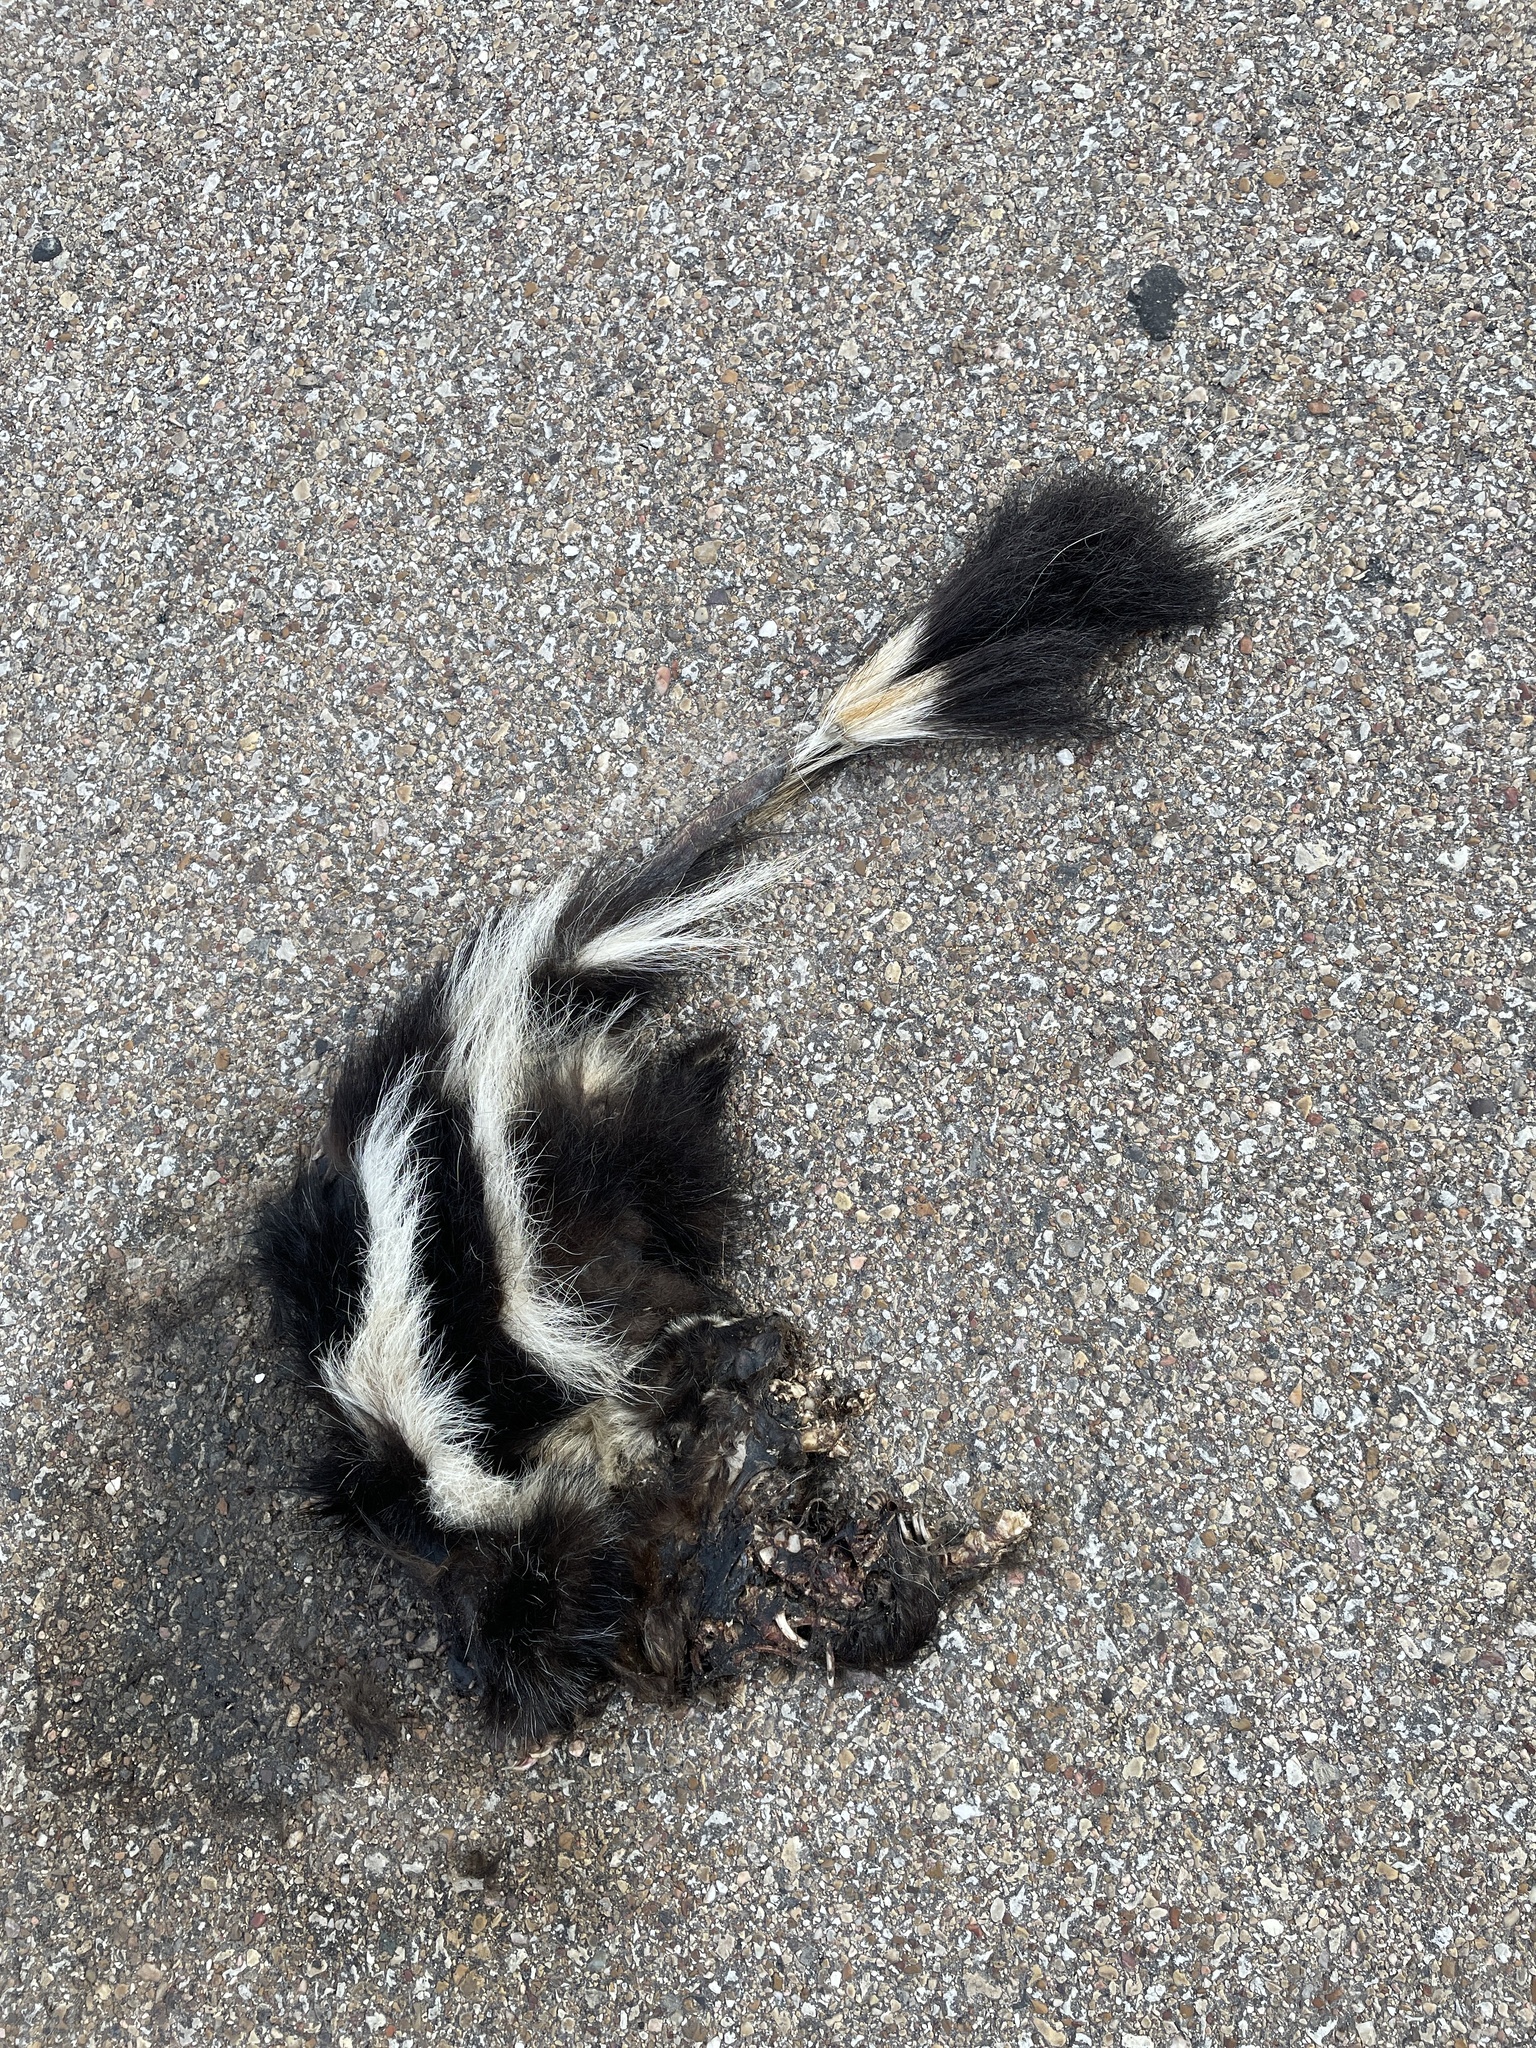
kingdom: Animalia
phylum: Chordata
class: Mammalia
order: Carnivora
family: Mephitidae
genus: Mephitis
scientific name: Mephitis mephitis
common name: Striped skunk
